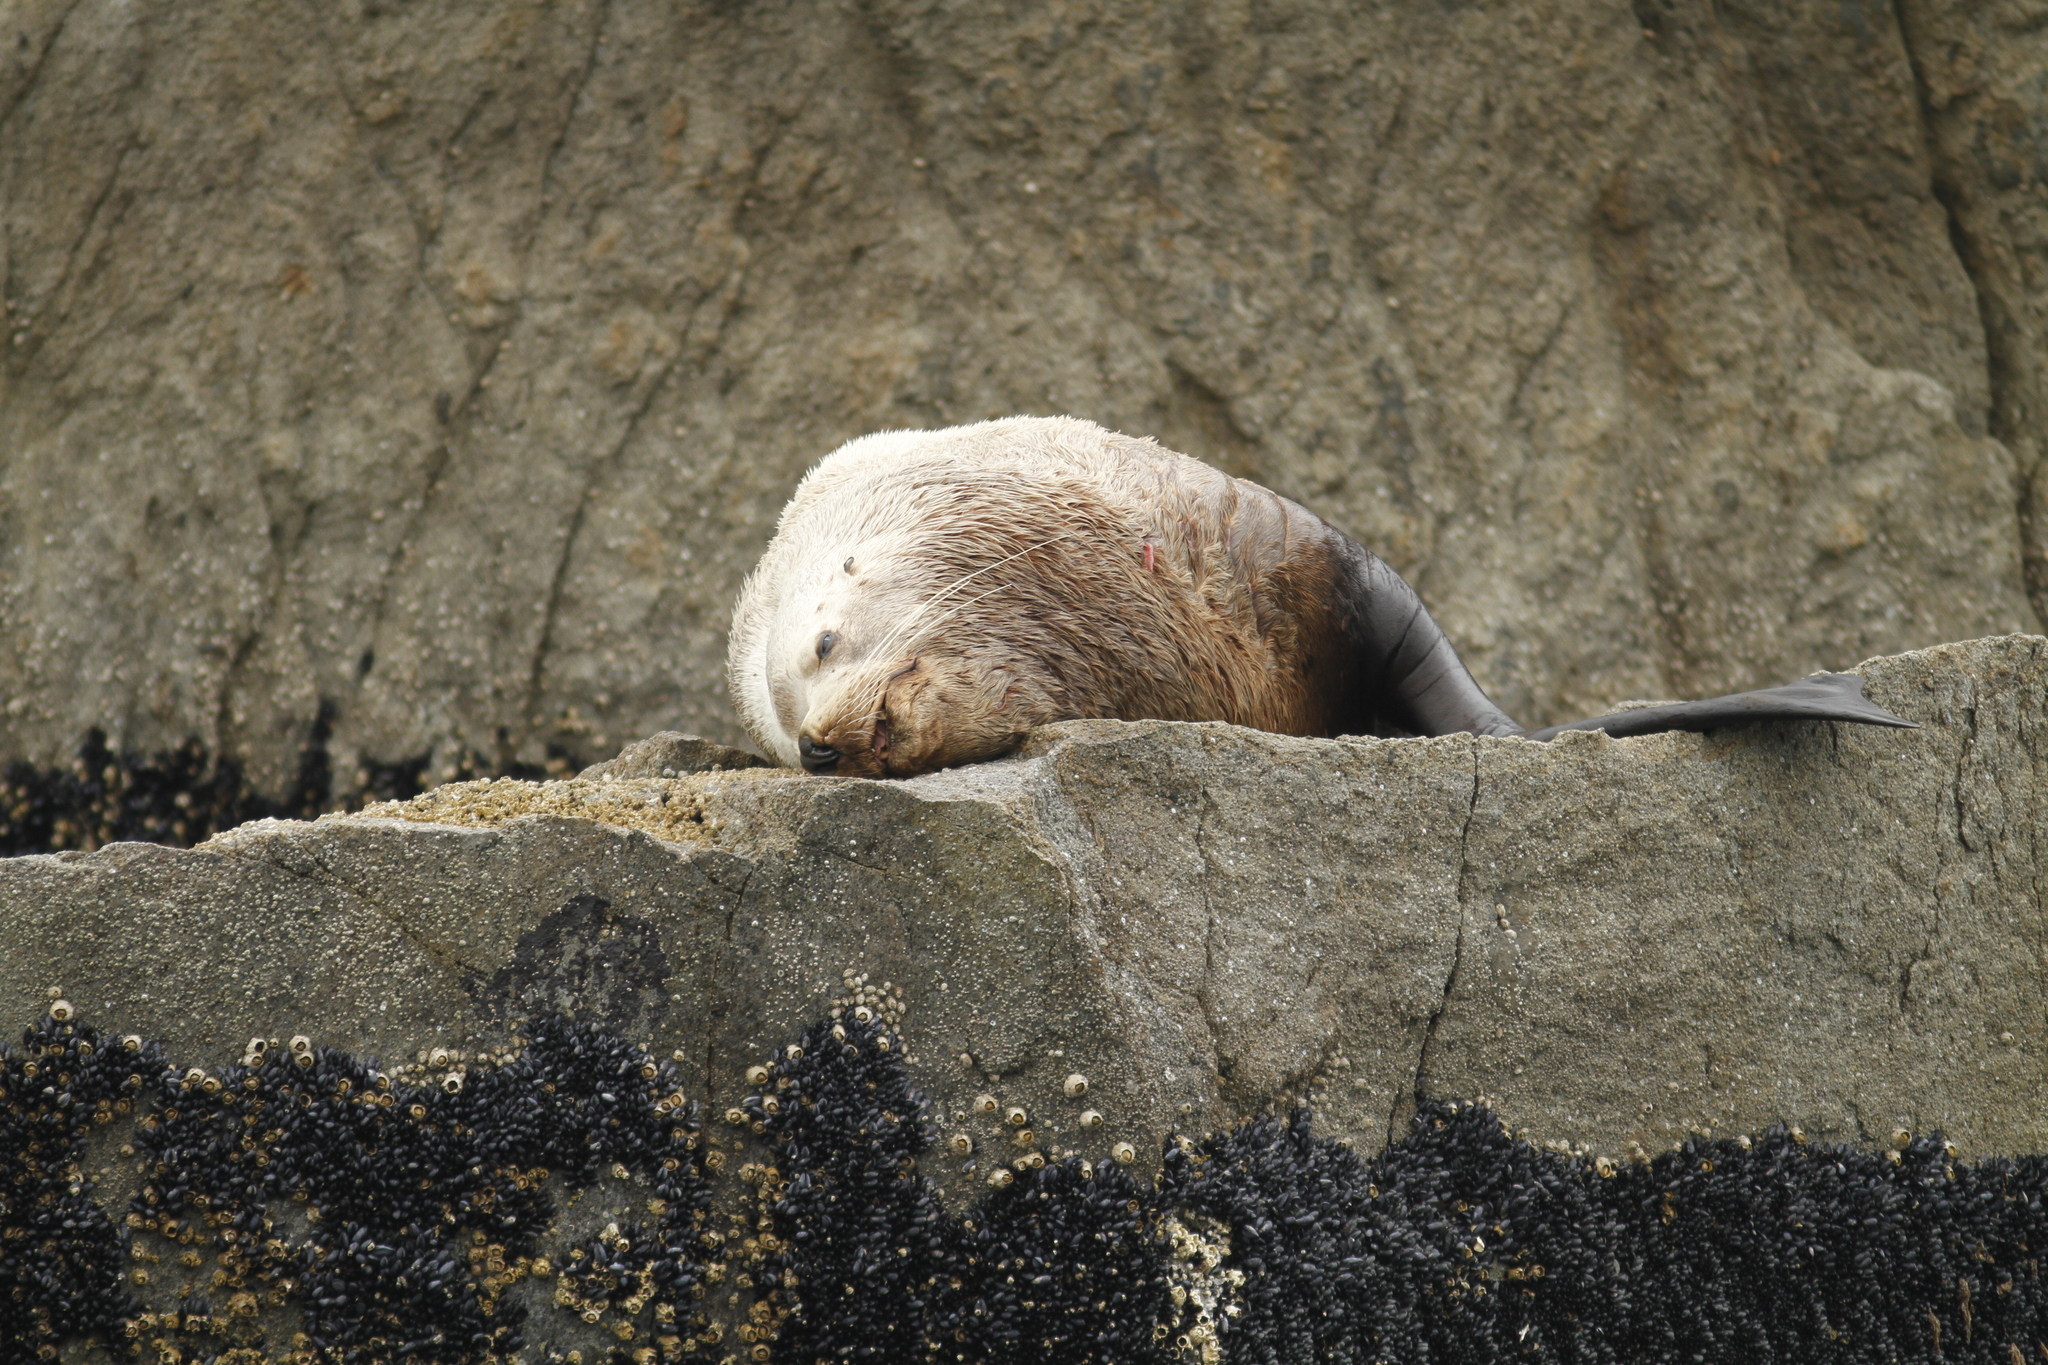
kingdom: Animalia
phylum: Chordata
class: Mammalia
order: Carnivora
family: Otariidae
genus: Eumetopias
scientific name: Eumetopias jubatus
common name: Steller sea lion
